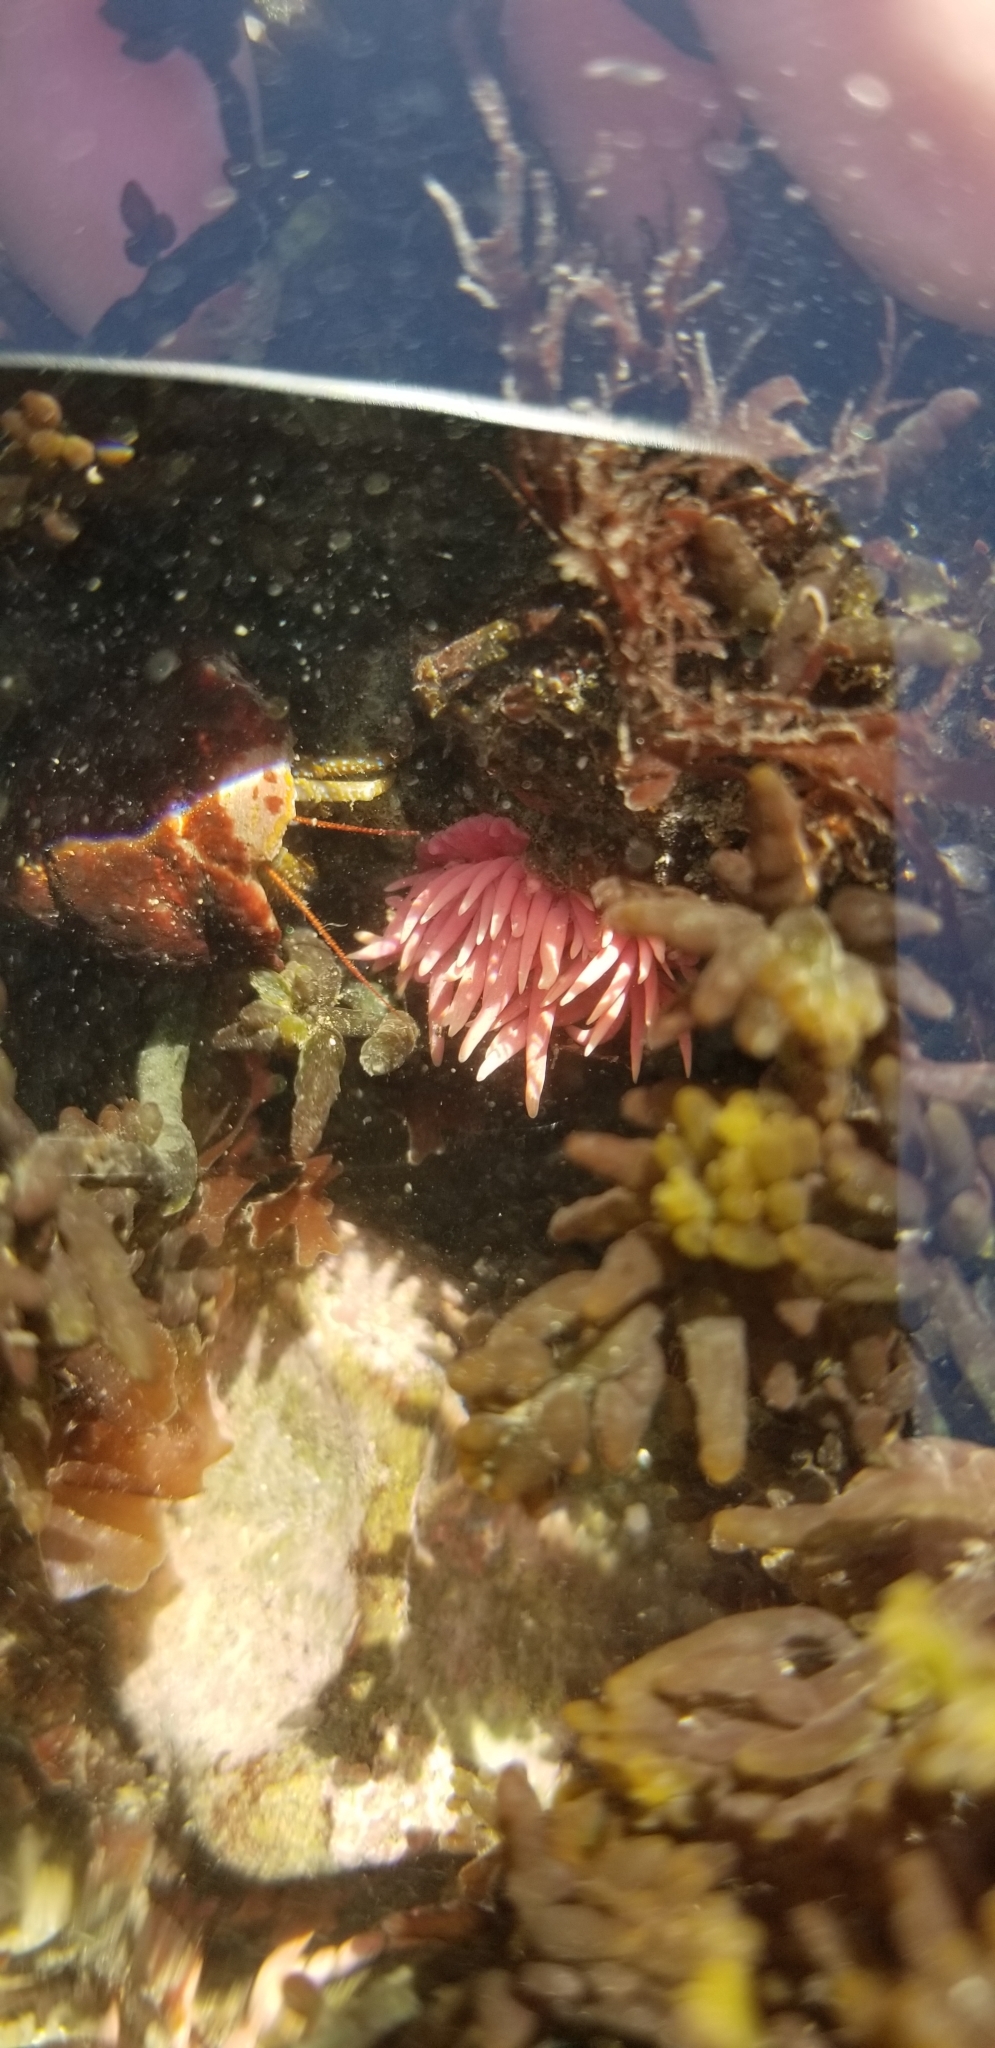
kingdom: Animalia
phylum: Mollusca
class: Gastropoda
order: Nudibranchia
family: Goniodorididae
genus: Okenia
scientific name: Okenia
